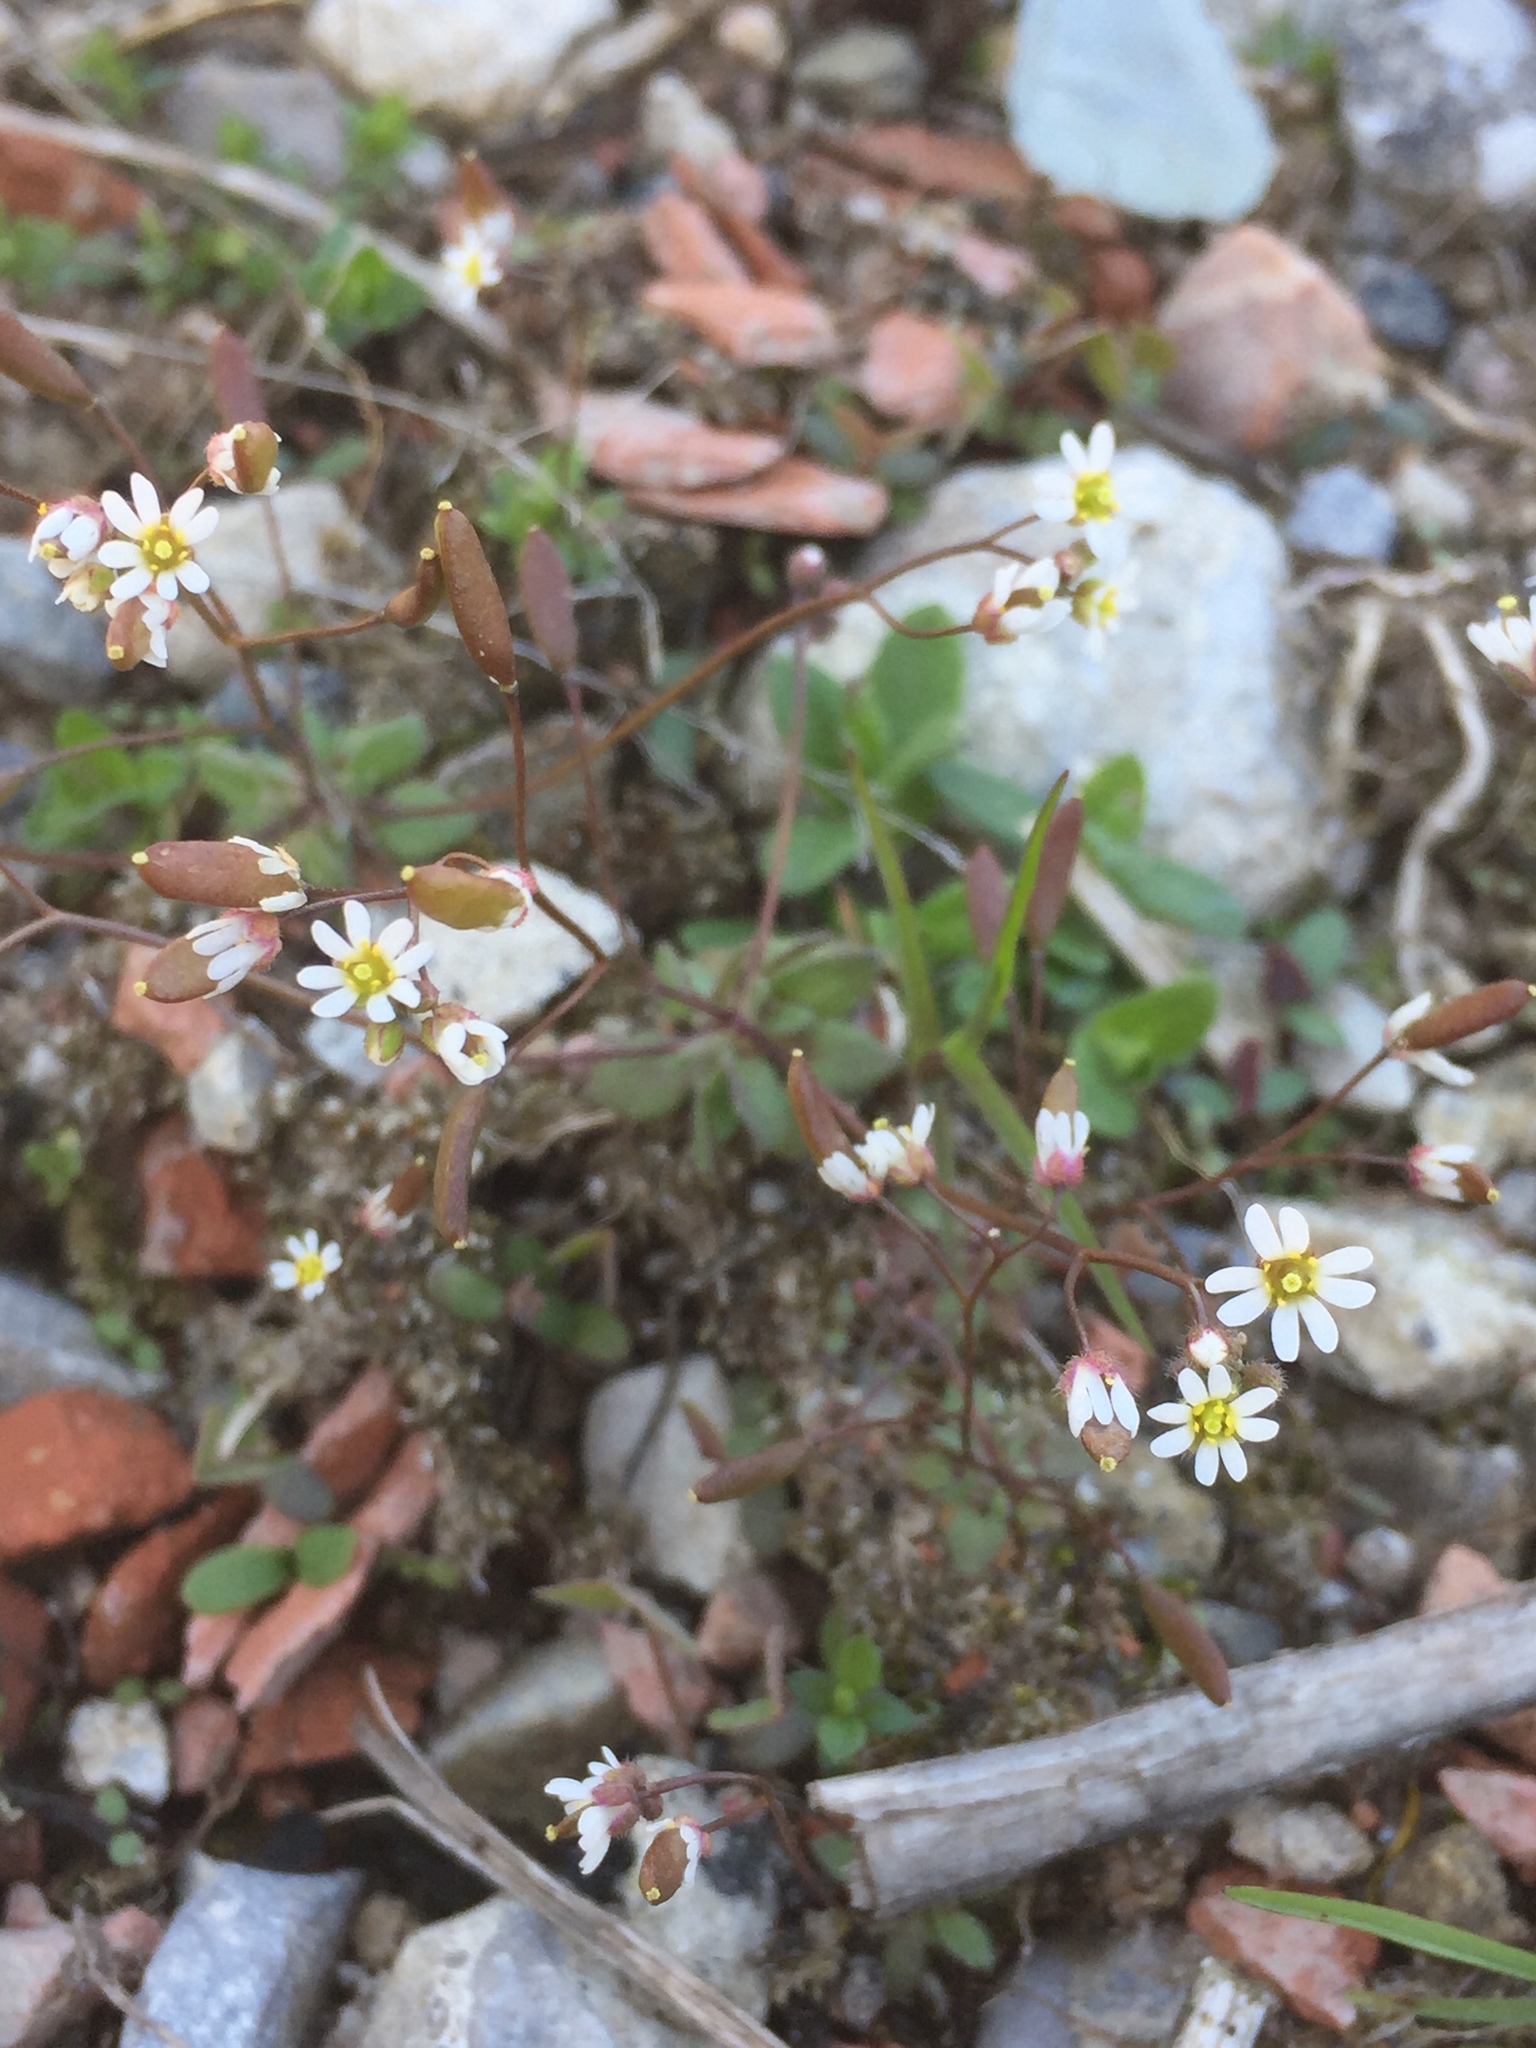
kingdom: Plantae
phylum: Tracheophyta
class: Magnoliopsida
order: Brassicales
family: Brassicaceae
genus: Draba
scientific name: Draba verna
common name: Spring draba
